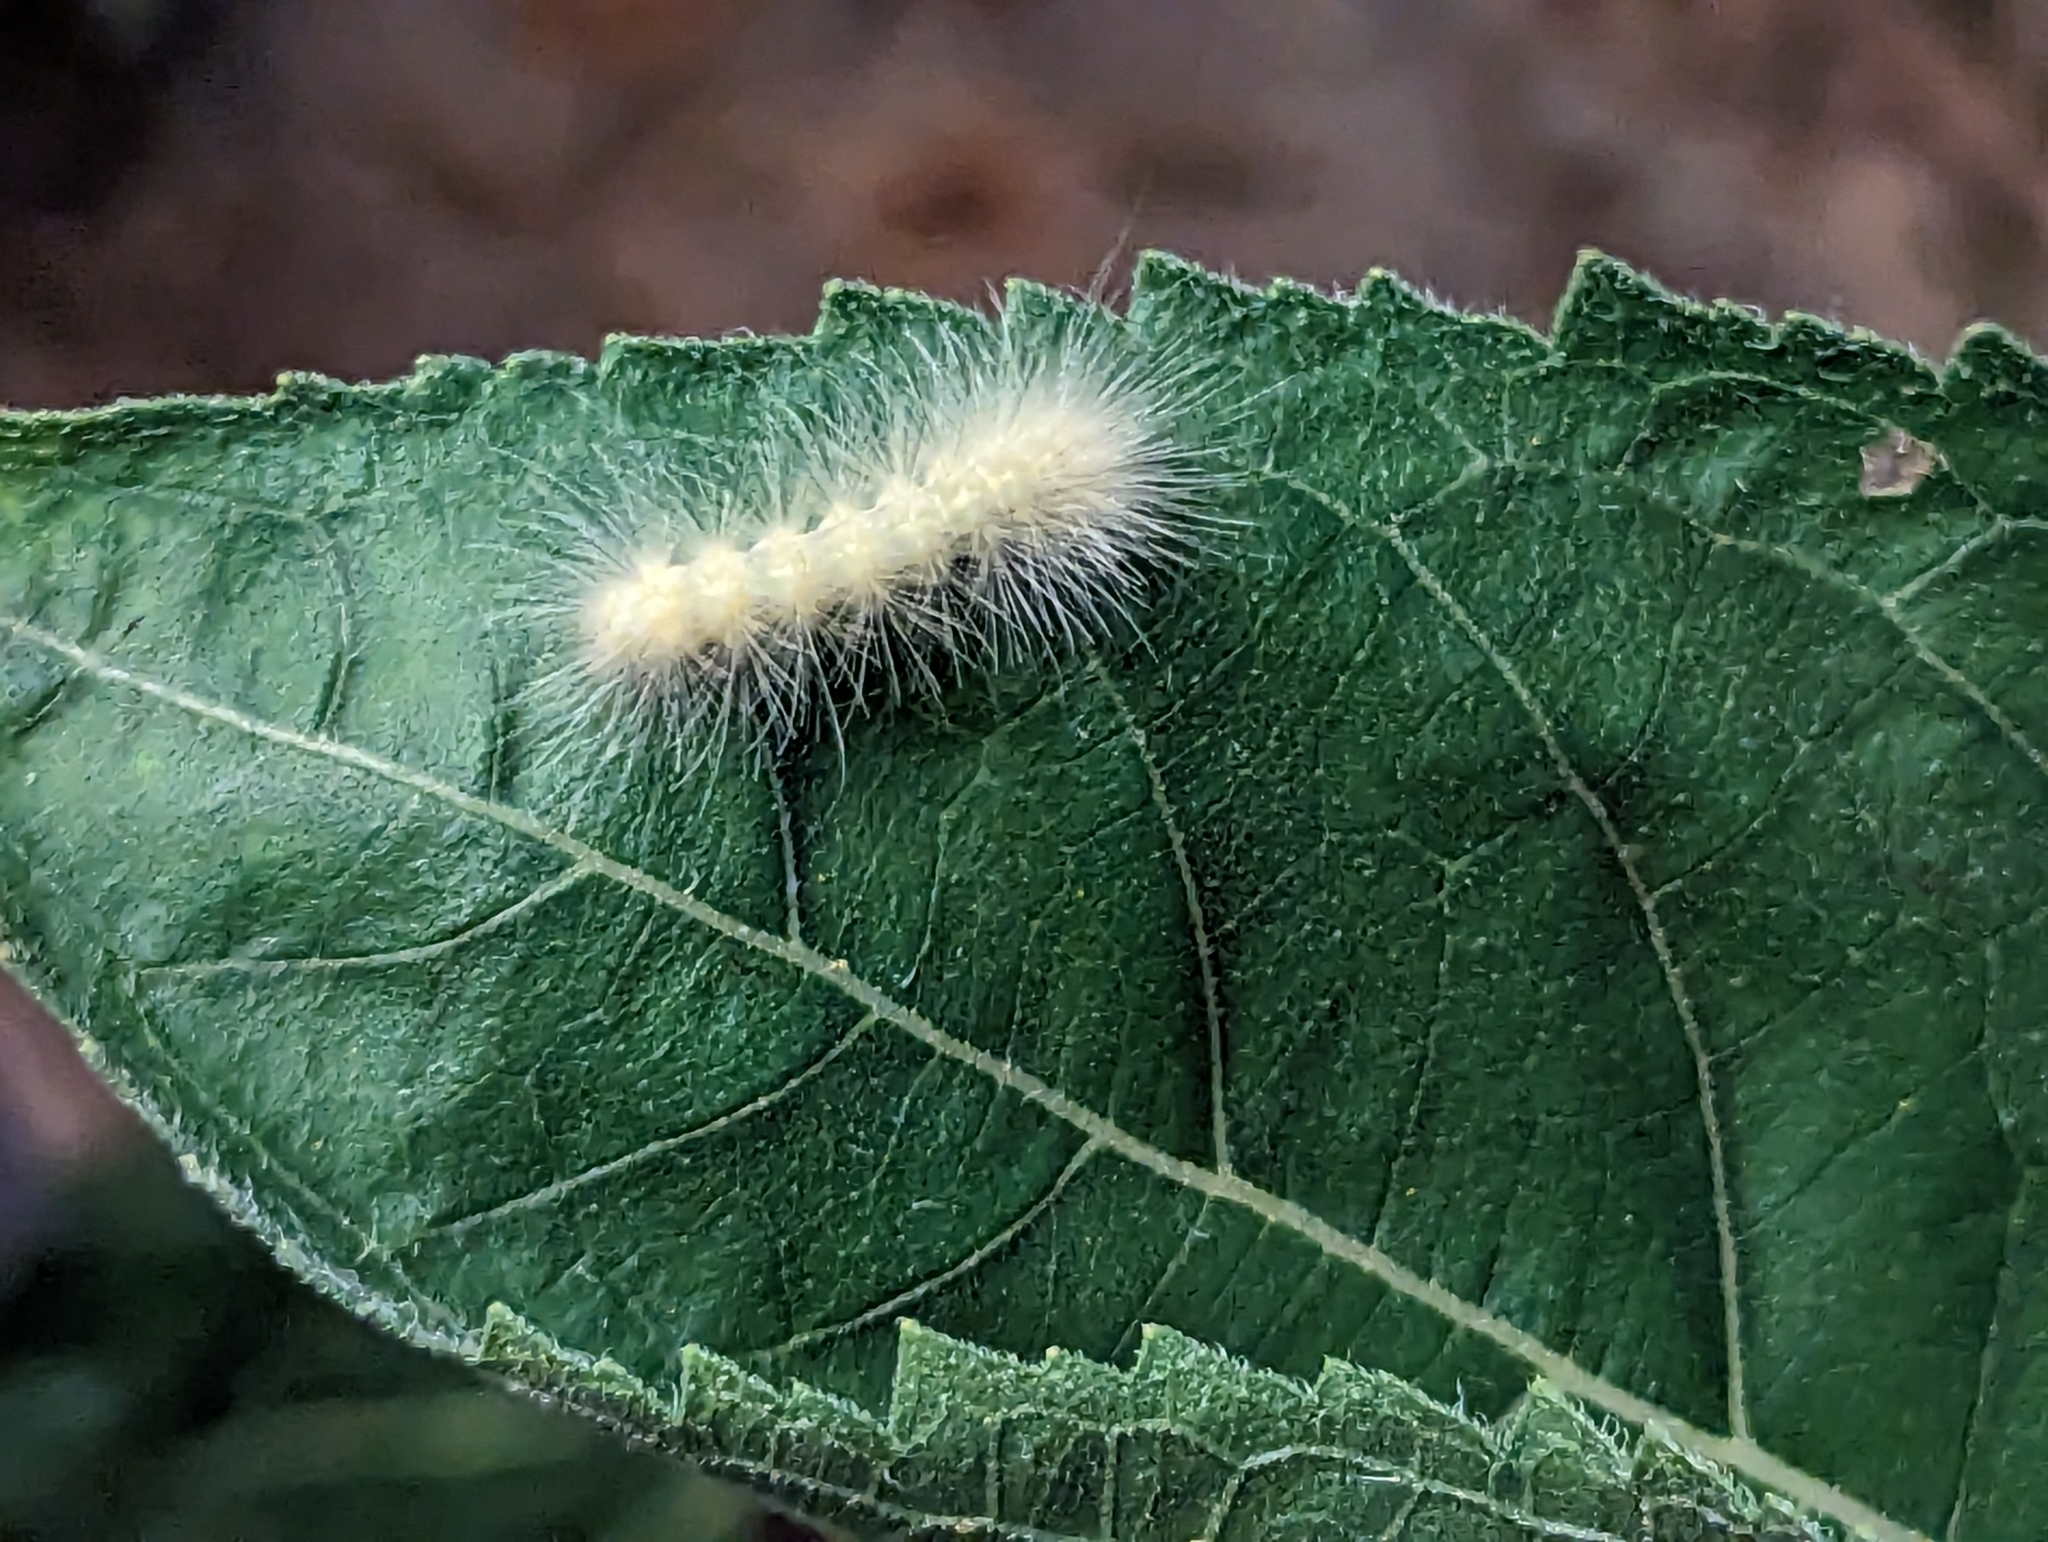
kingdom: Animalia
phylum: Arthropoda
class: Insecta
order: Lepidoptera
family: Erebidae
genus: Spilosoma
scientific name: Spilosoma virginica
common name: Virginia tiger moth
